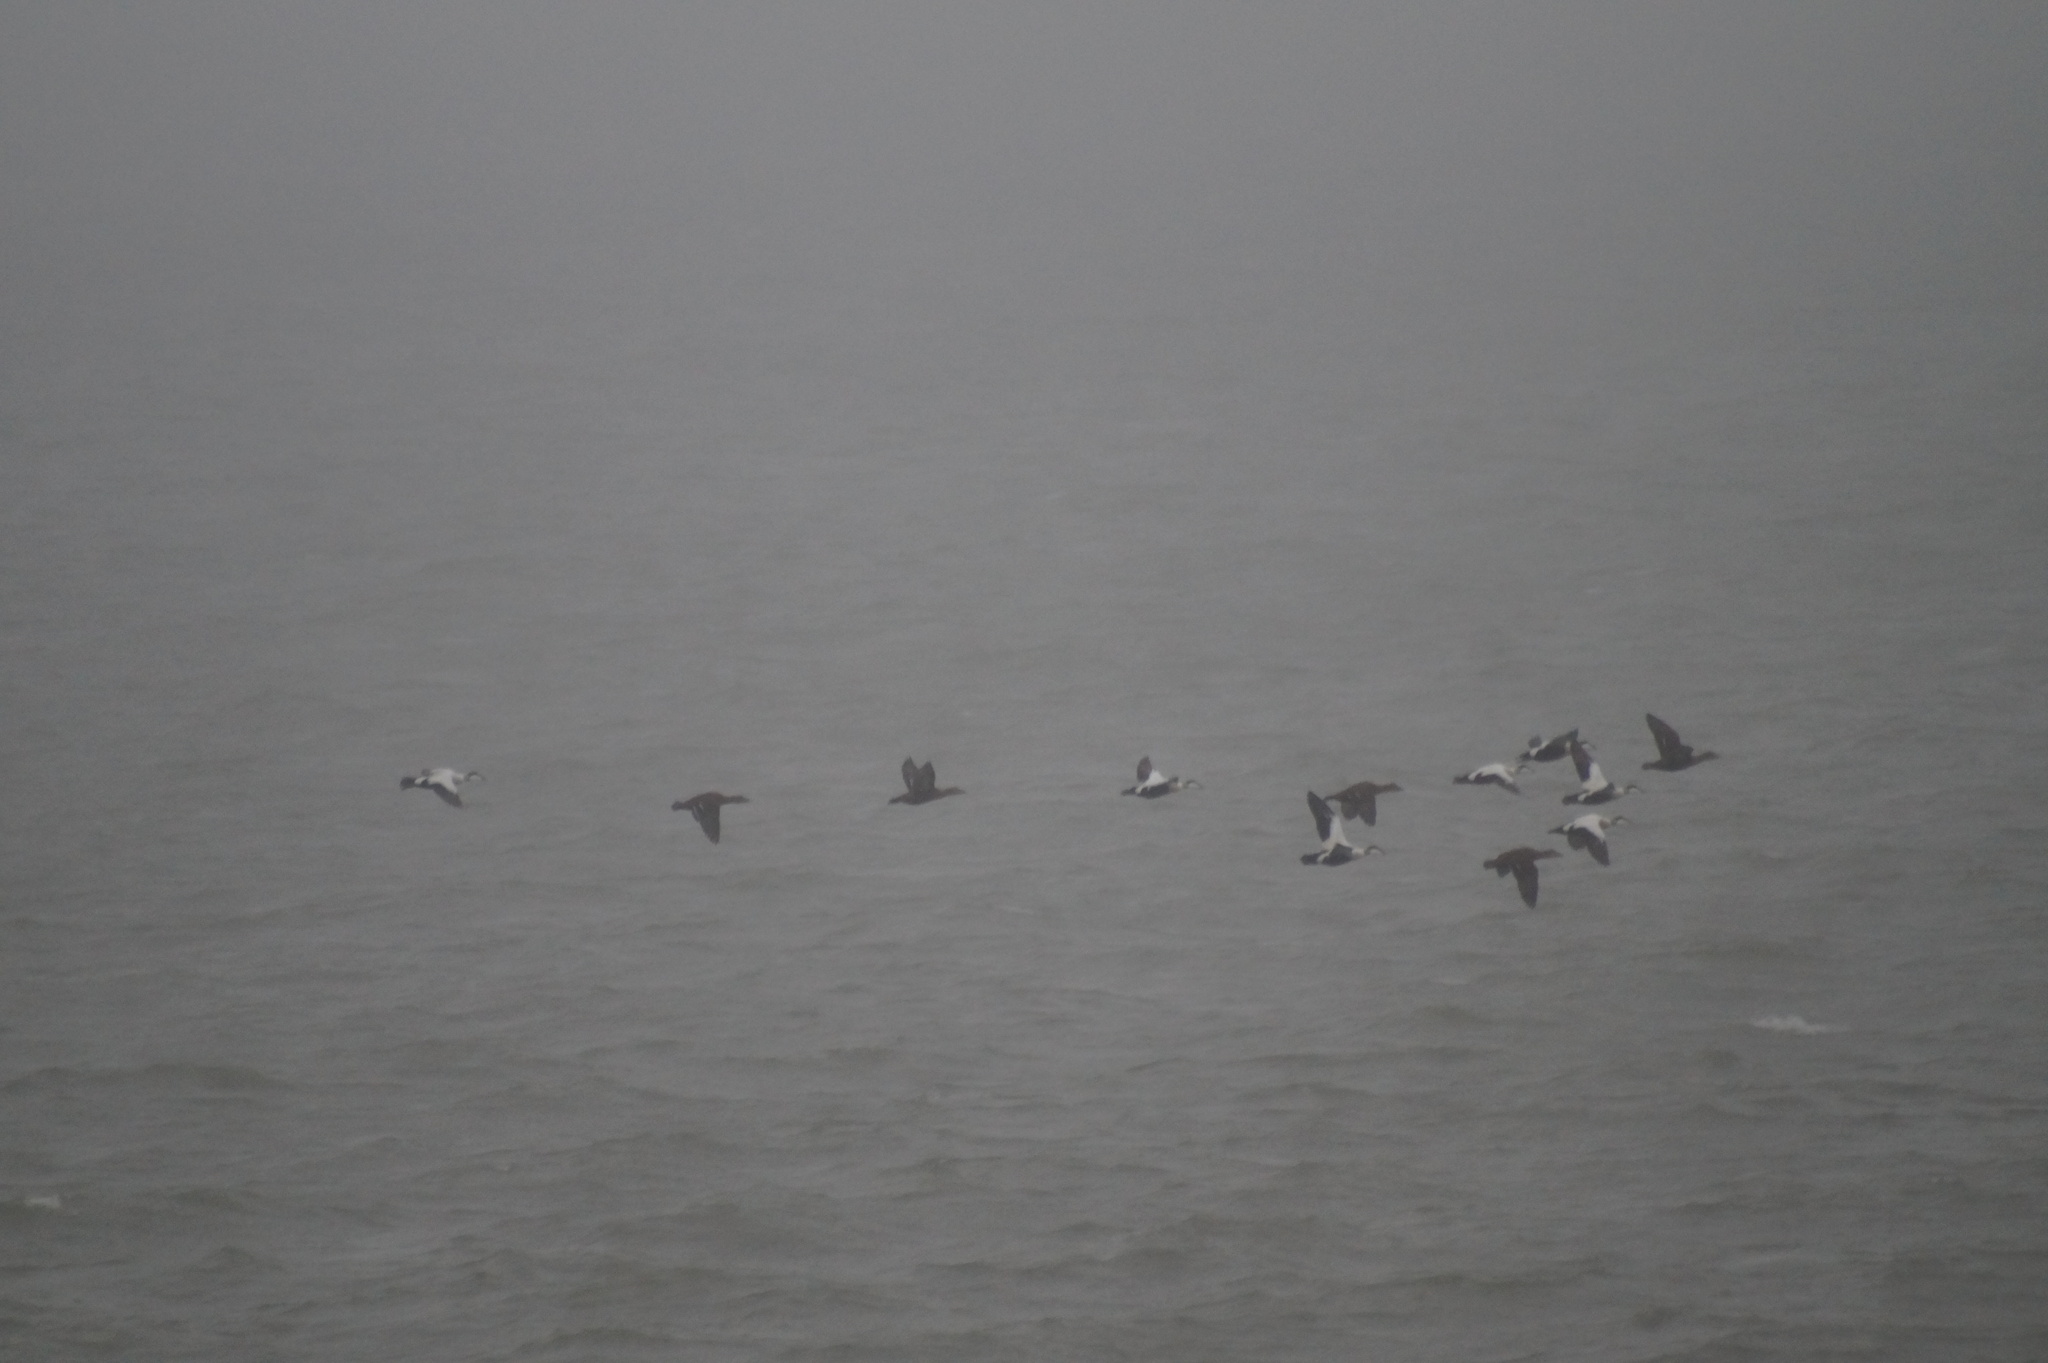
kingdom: Animalia
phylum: Chordata
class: Aves
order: Anseriformes
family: Anatidae
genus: Somateria
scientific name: Somateria mollissima
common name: Common eider
